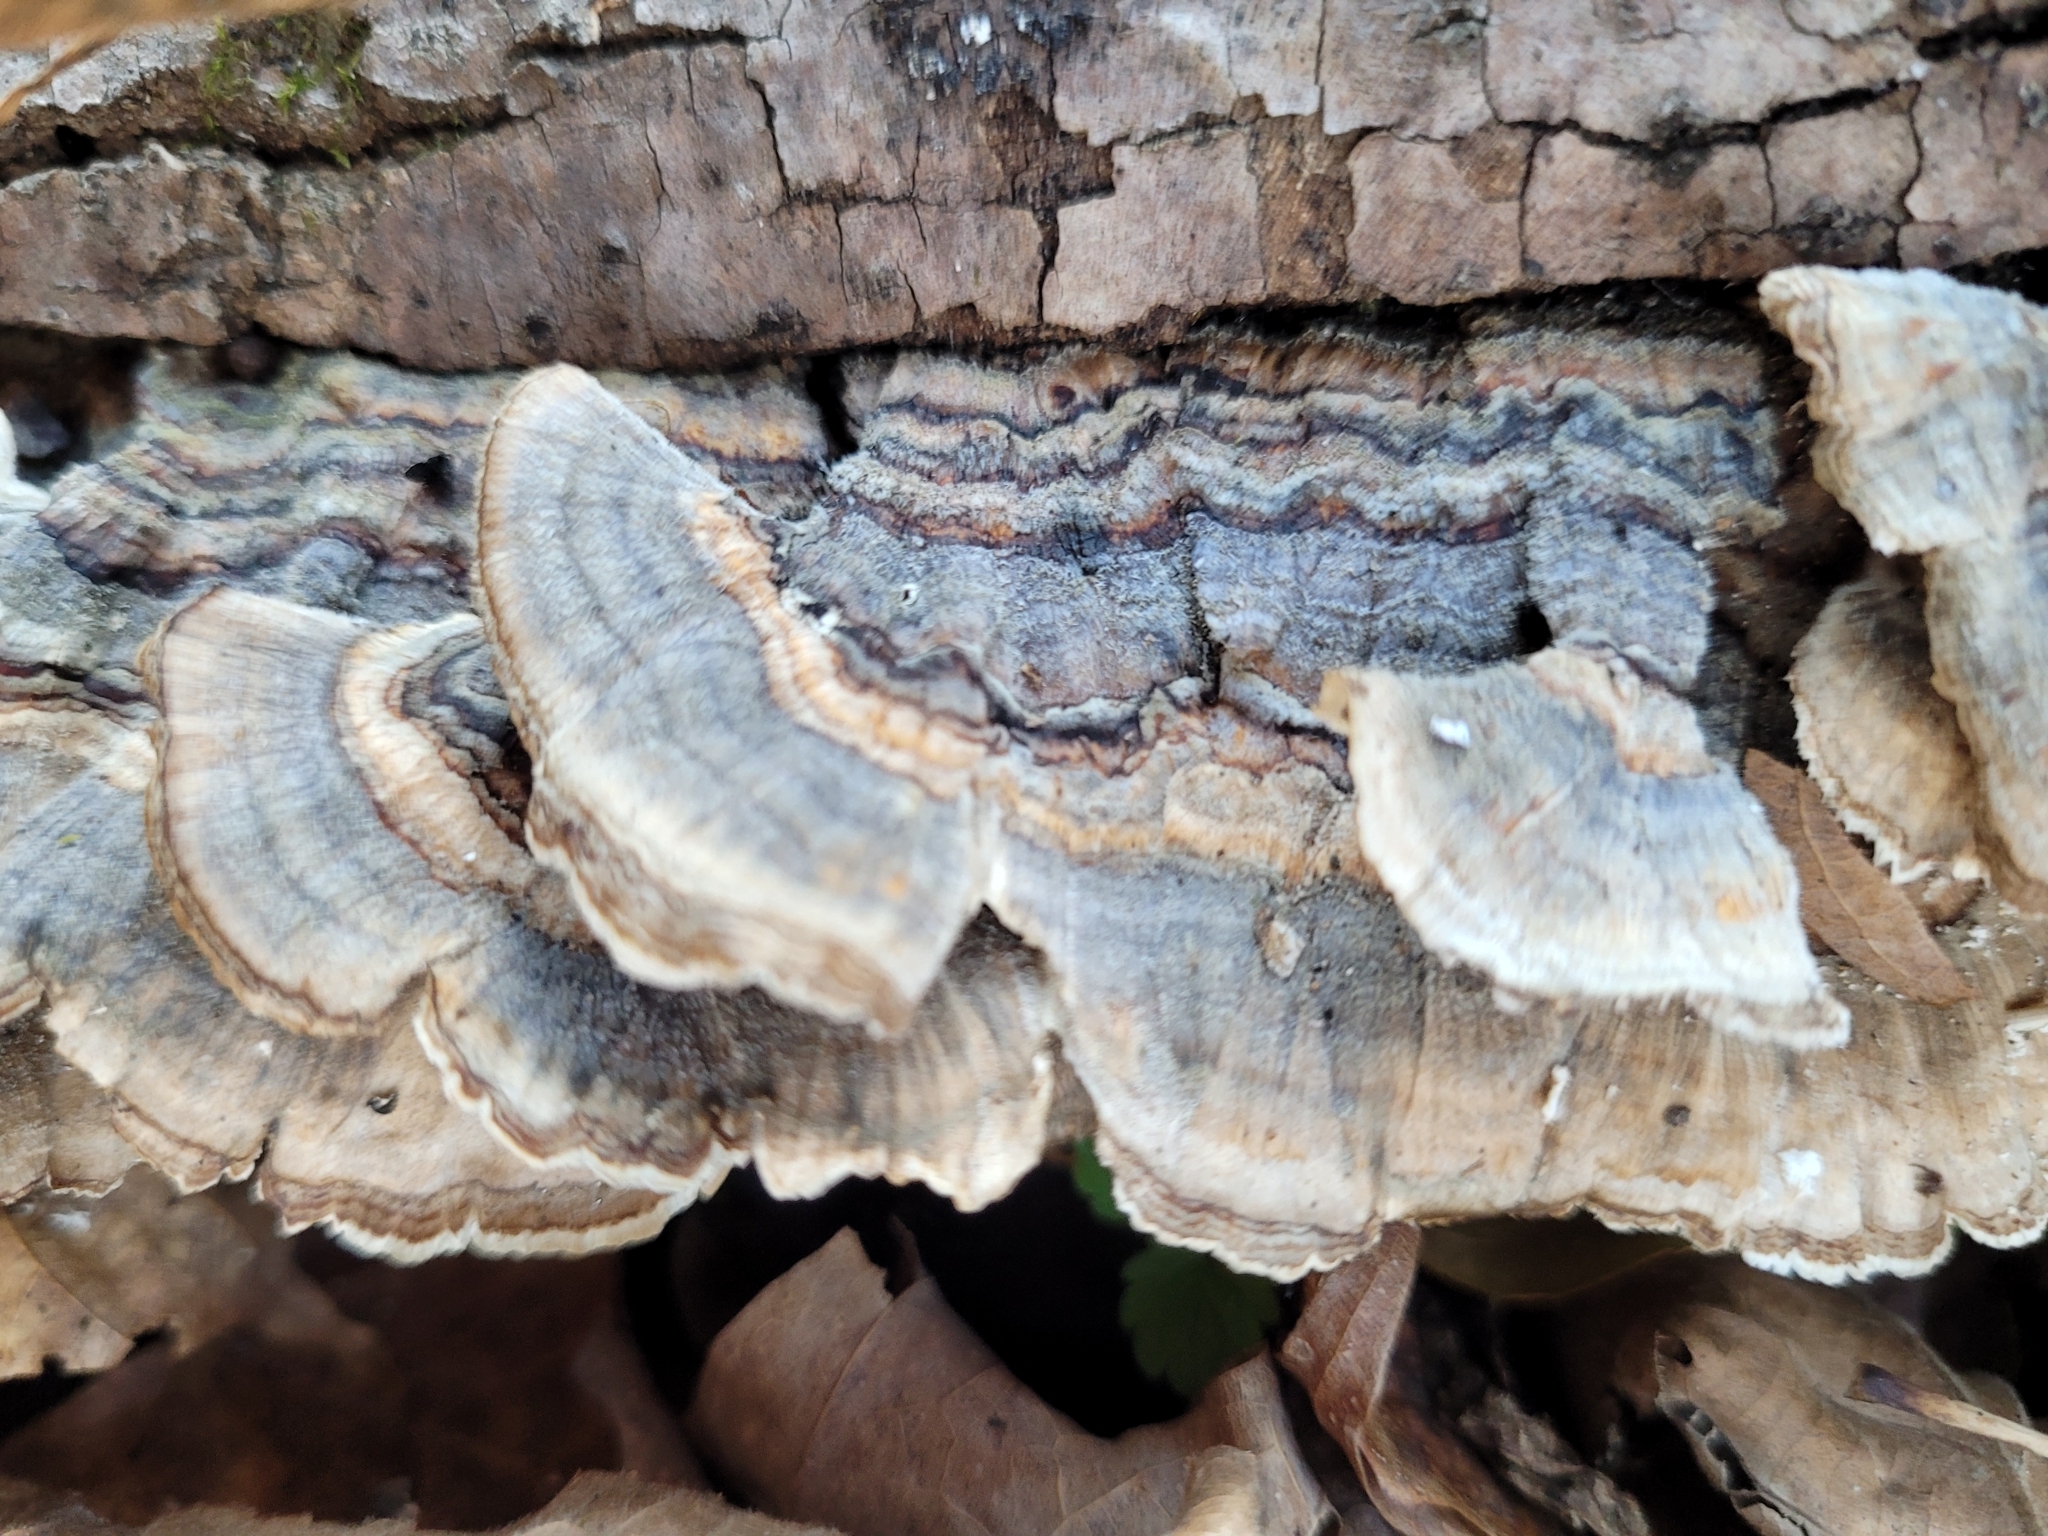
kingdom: Fungi
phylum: Basidiomycota
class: Agaricomycetes
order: Polyporales
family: Polyporaceae
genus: Trametes
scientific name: Trametes versicolor
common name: Turkeytail
